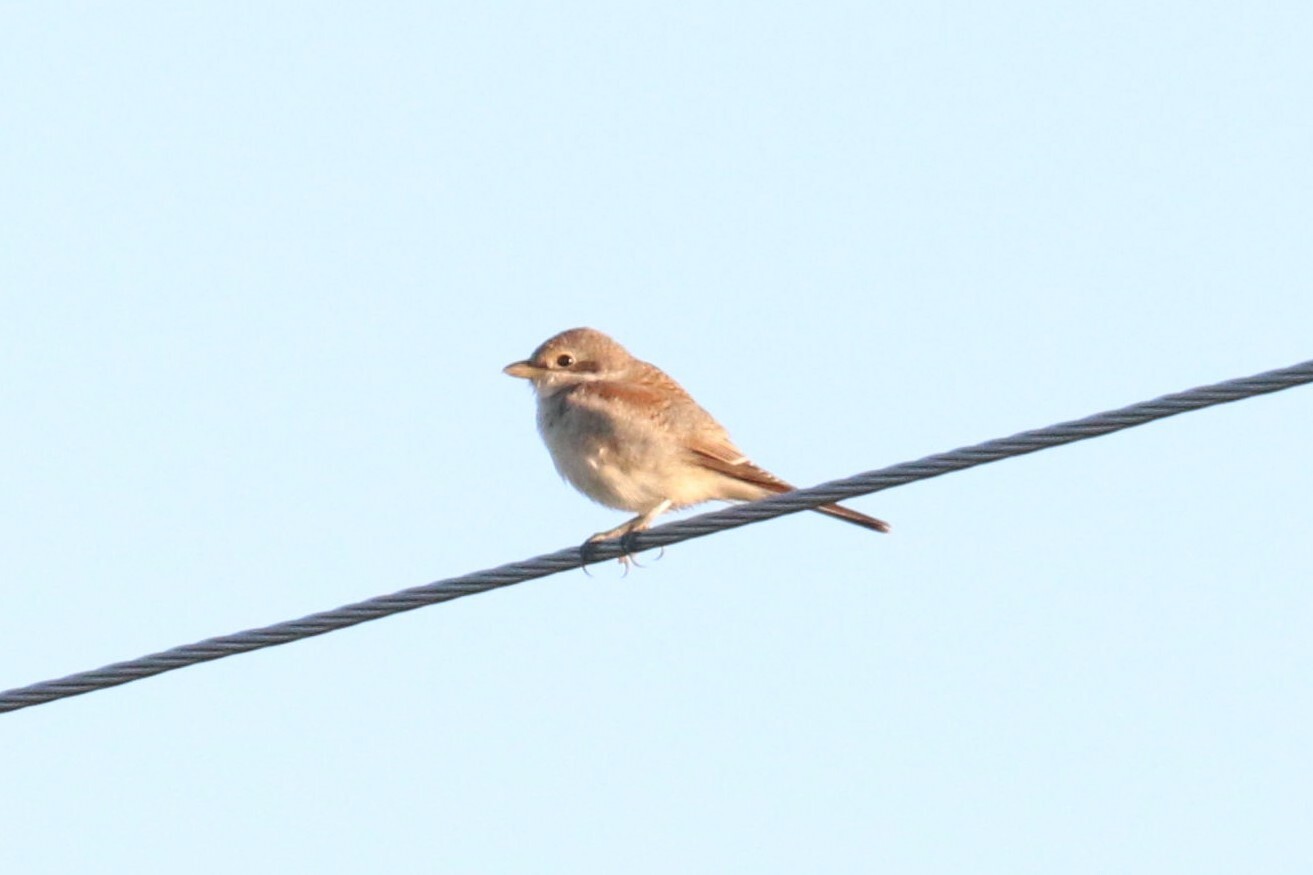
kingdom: Animalia
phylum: Chordata
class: Aves
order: Passeriformes
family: Laniidae
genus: Lanius
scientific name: Lanius collurio
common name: Red-backed shrike
